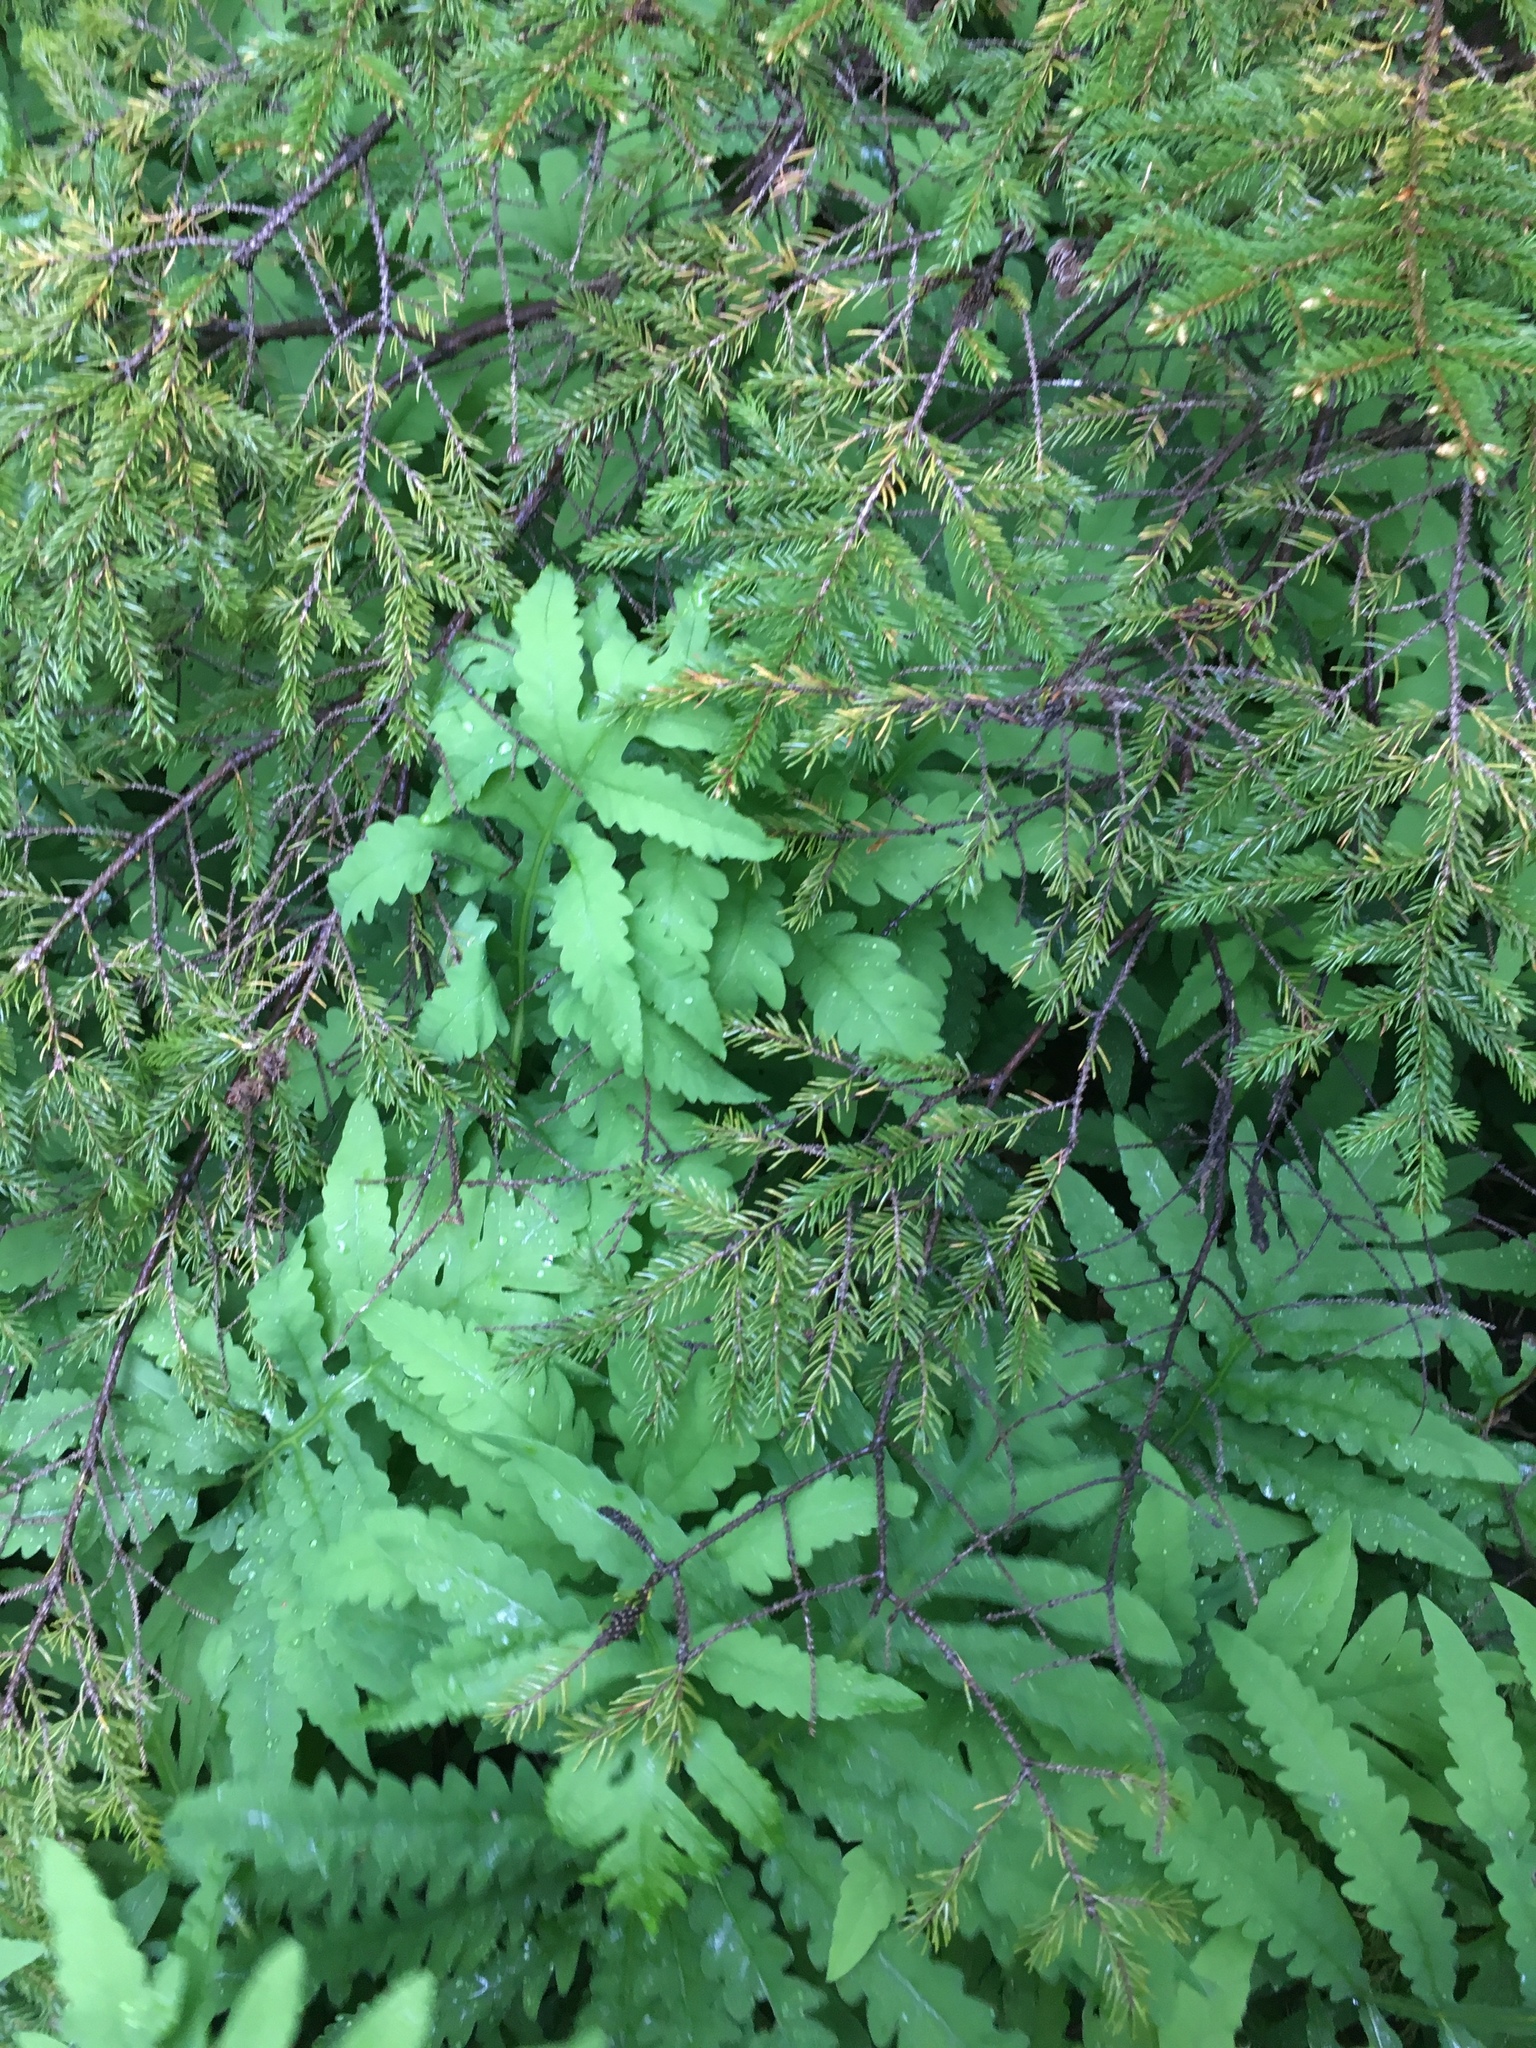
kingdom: Plantae
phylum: Tracheophyta
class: Pinopsida
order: Pinales
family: Pinaceae
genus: Picea
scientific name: Picea rubens
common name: Red spruce
